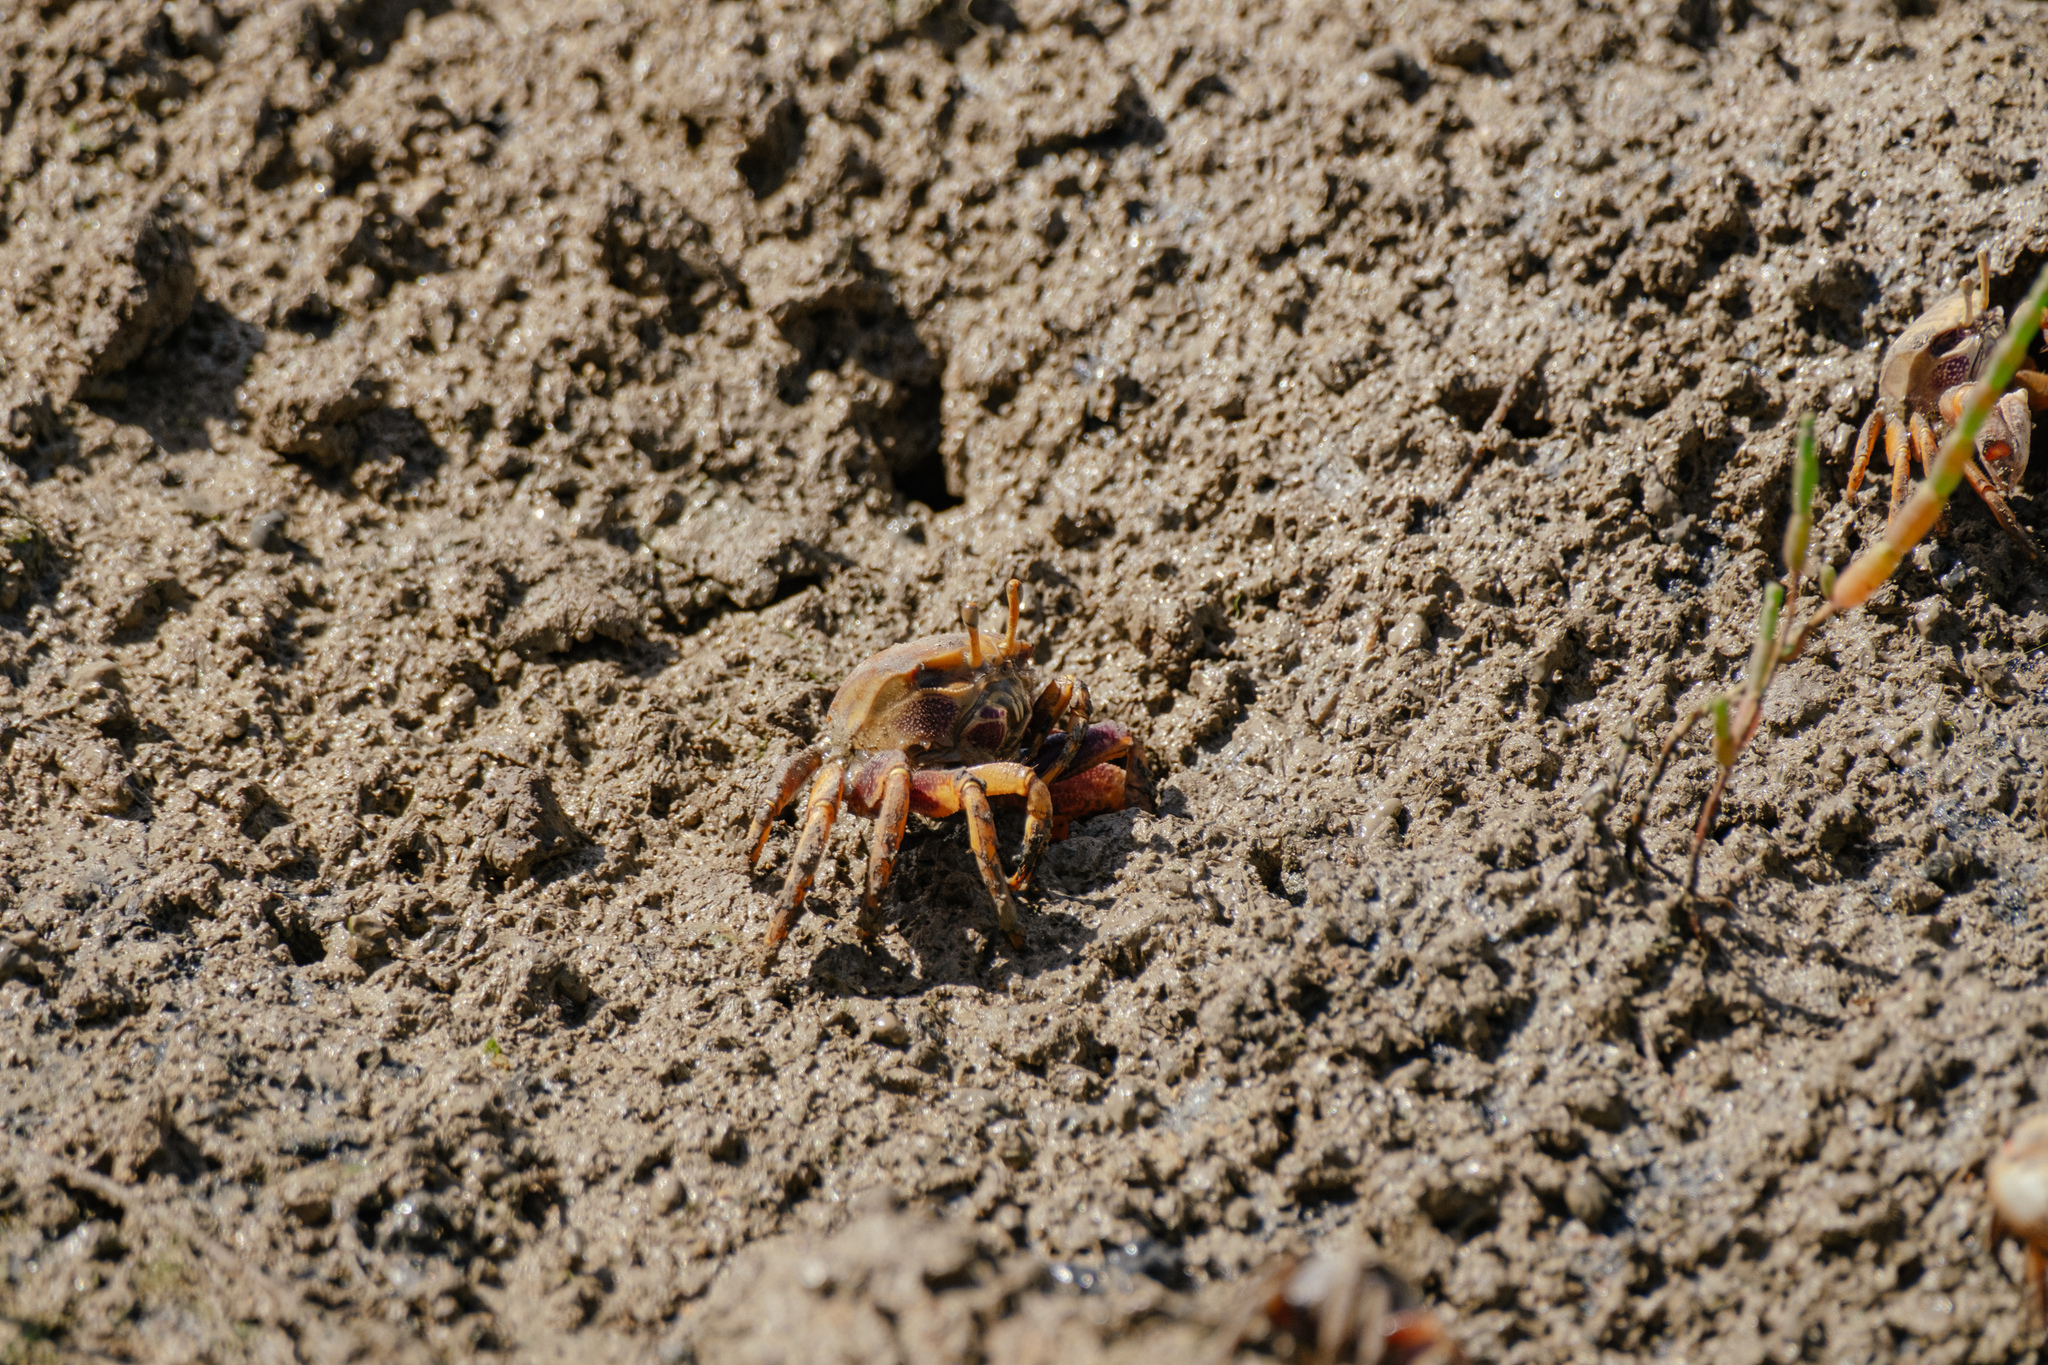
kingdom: Animalia
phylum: Arthropoda
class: Malacostraca
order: Decapoda
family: Ocypodidae
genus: Afruca
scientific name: Afruca tangeri
